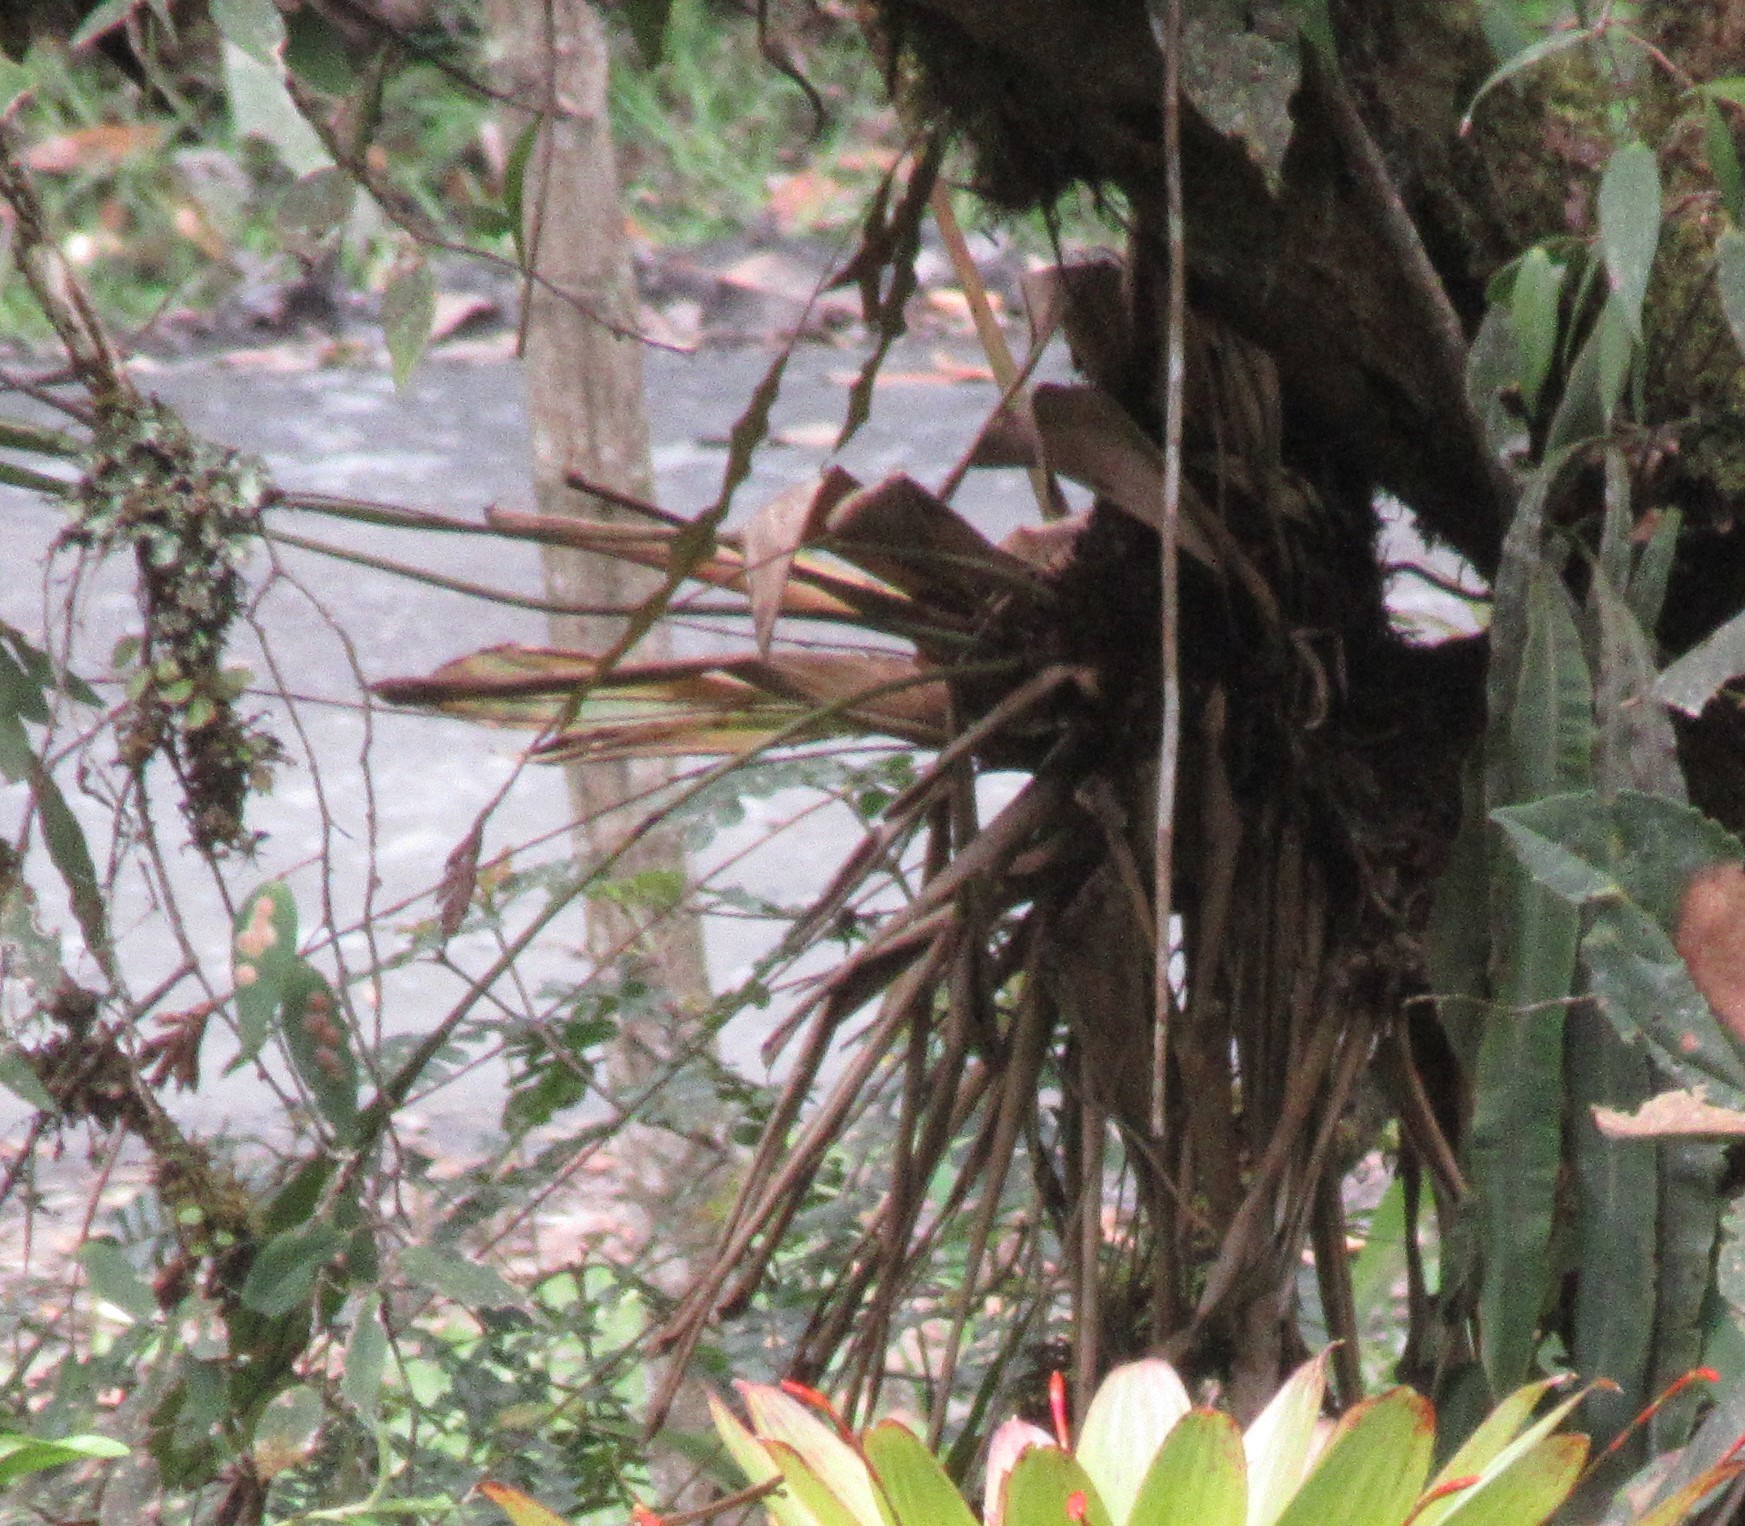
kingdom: Plantae
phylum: Tracheophyta
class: Liliopsida
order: Poales
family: Bromeliaceae
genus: Tillandsia
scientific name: Tillandsia complanata
